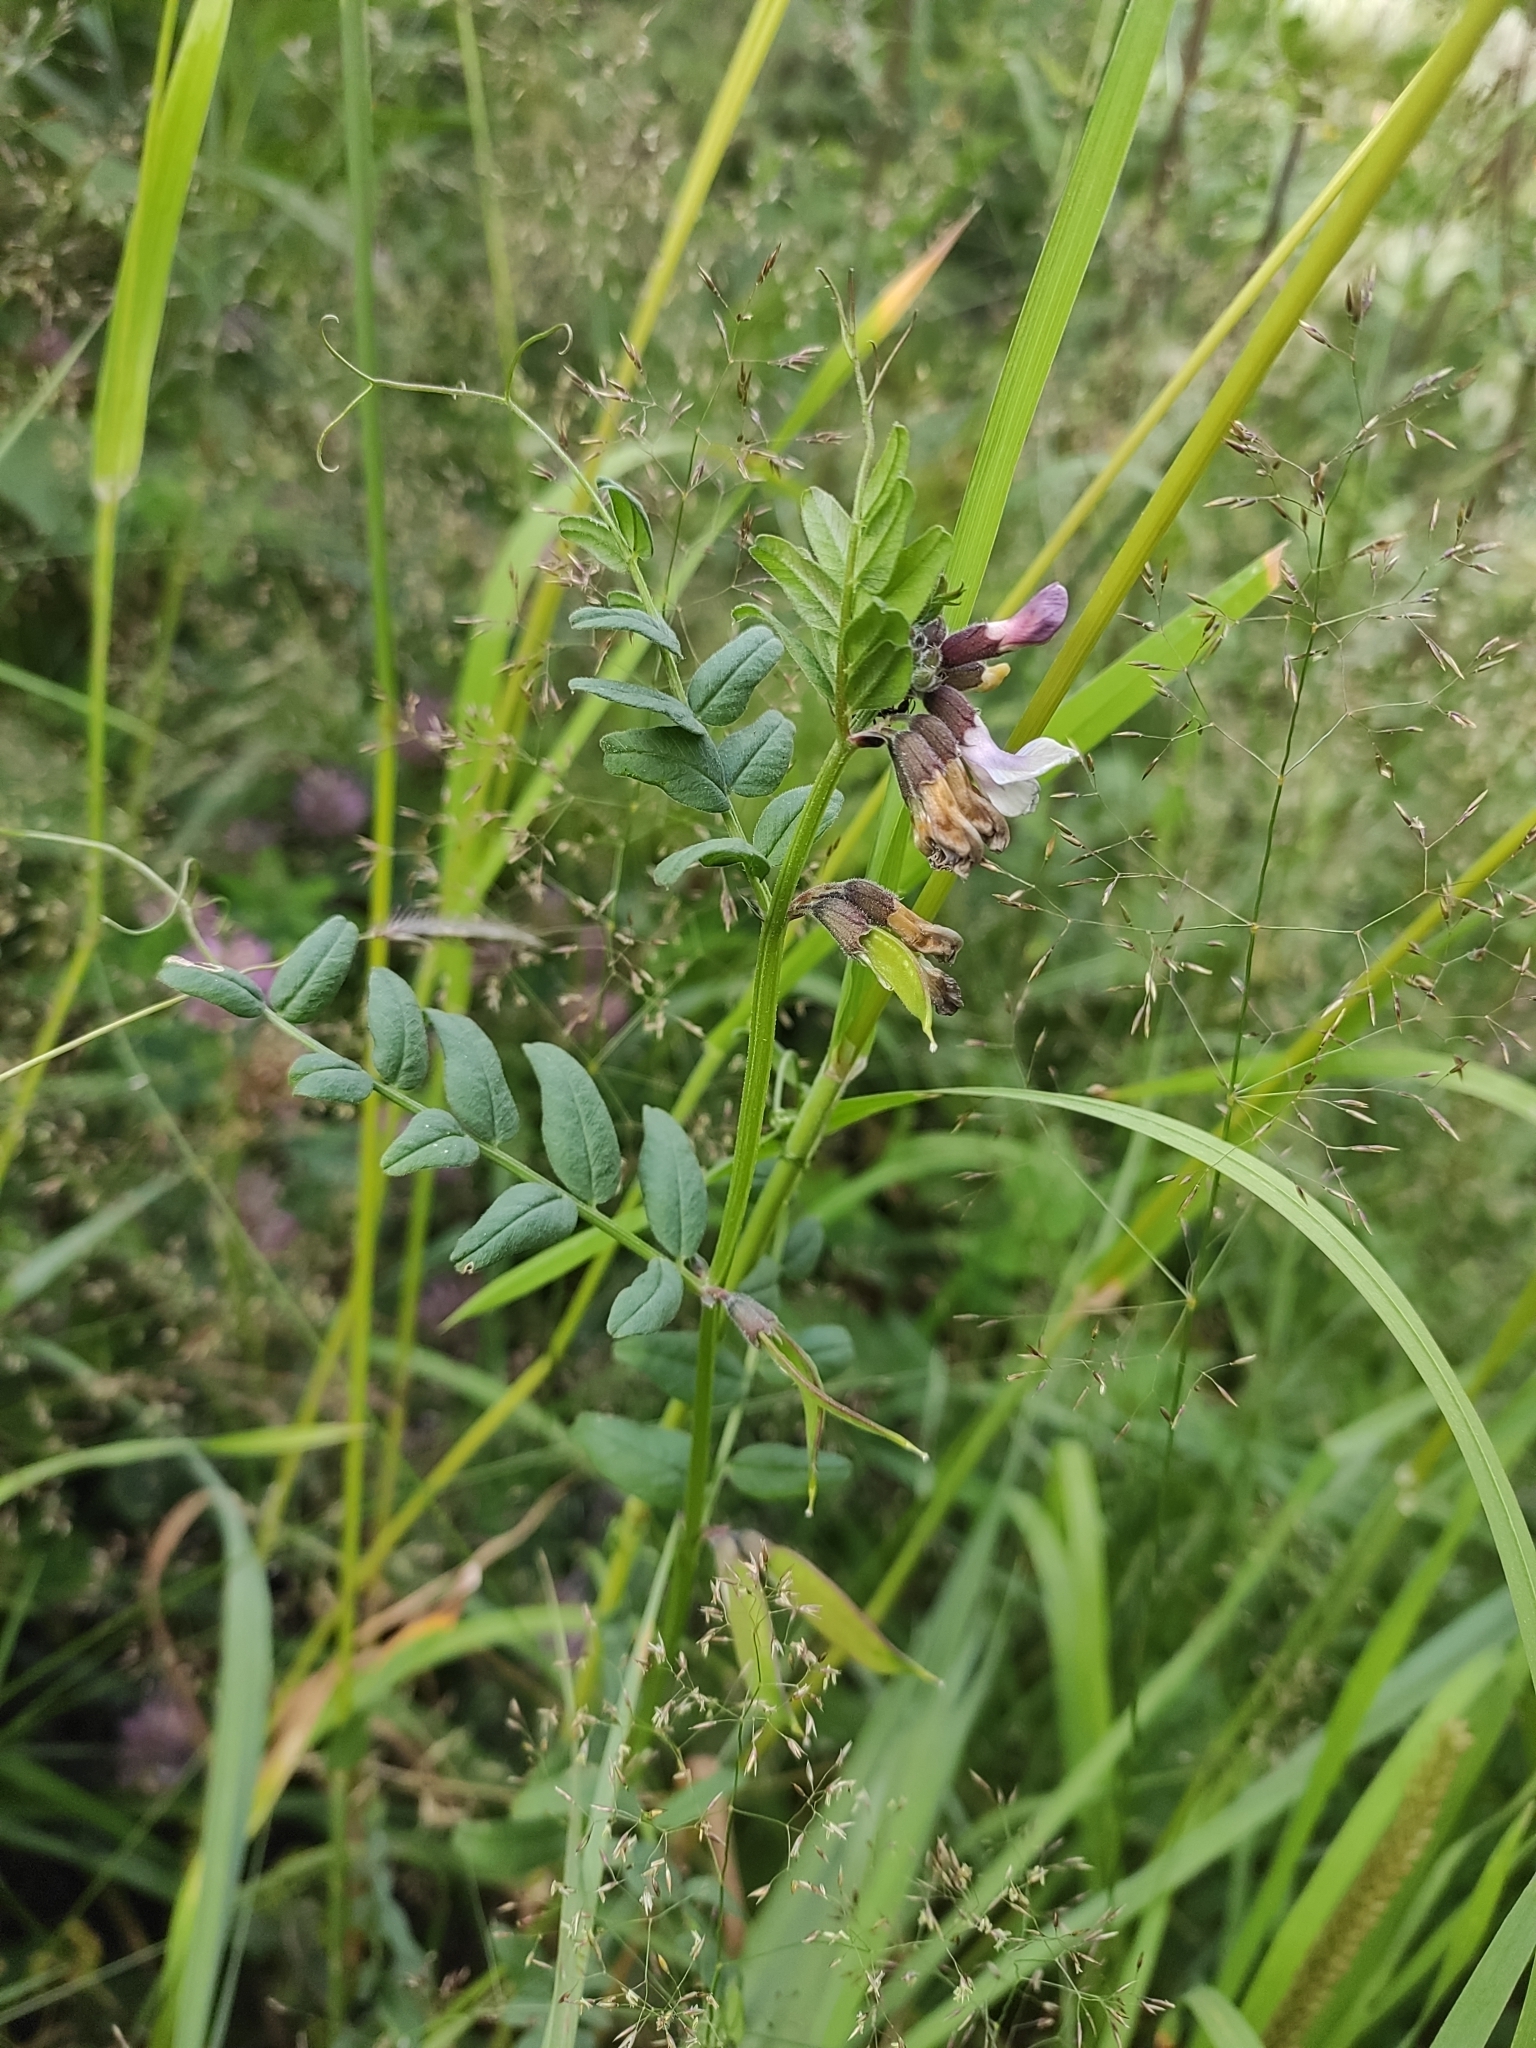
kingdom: Plantae
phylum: Tracheophyta
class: Magnoliopsida
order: Fabales
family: Fabaceae
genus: Vicia
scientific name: Vicia sepium
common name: Bush vetch
